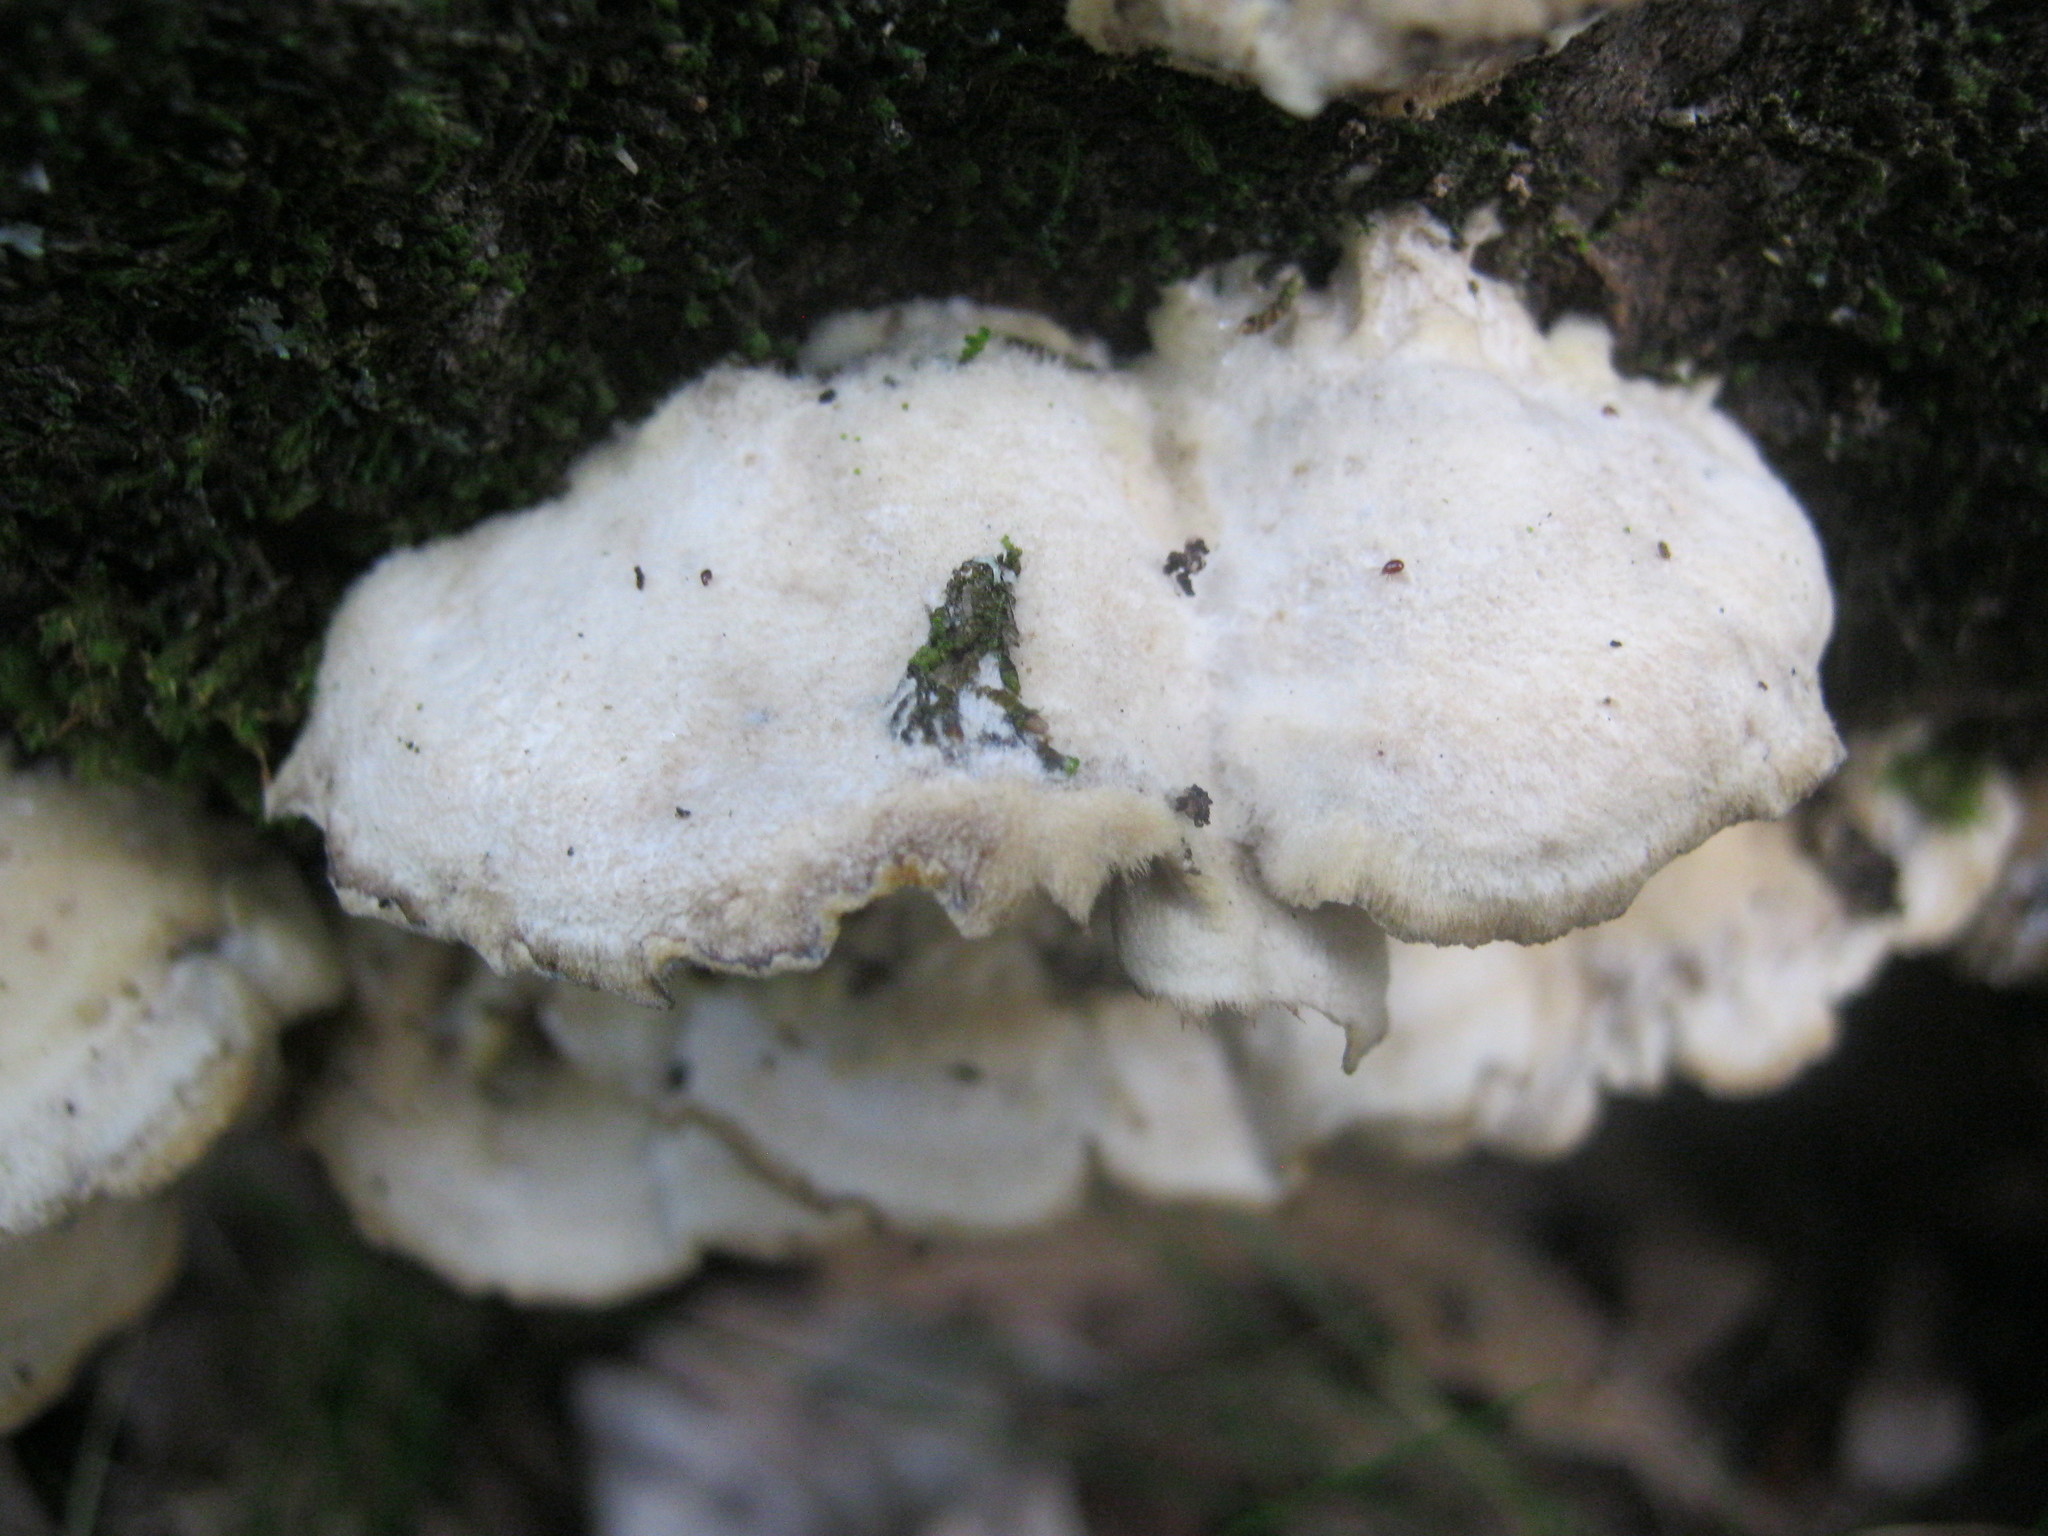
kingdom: Fungi
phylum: Basidiomycota
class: Agaricomycetes
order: Polyporales
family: Phanerochaetaceae
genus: Bjerkandera
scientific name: Bjerkandera adusta
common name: Smoky bracket
